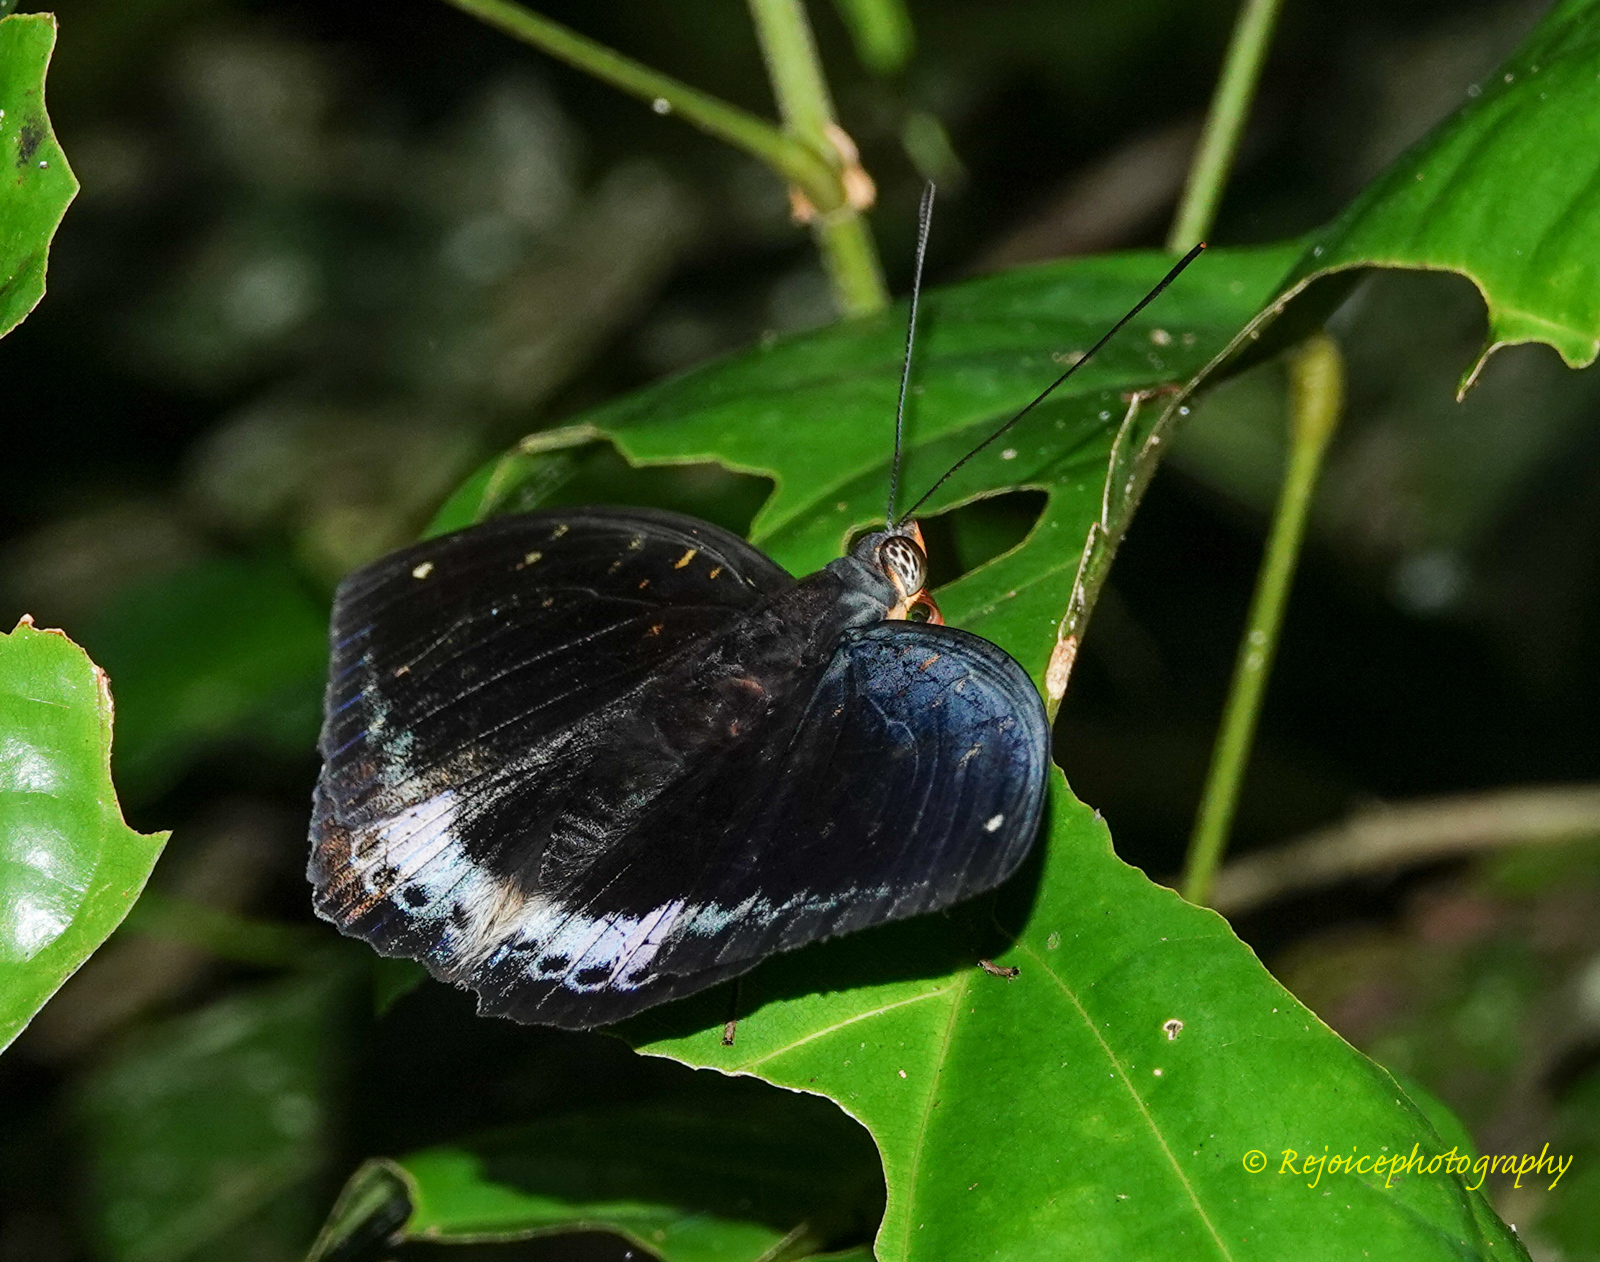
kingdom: Animalia
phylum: Arthropoda
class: Insecta
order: Lepidoptera
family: Nymphalidae
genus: Lexias
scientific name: Lexias dirtea
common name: Black-tipped archduke
